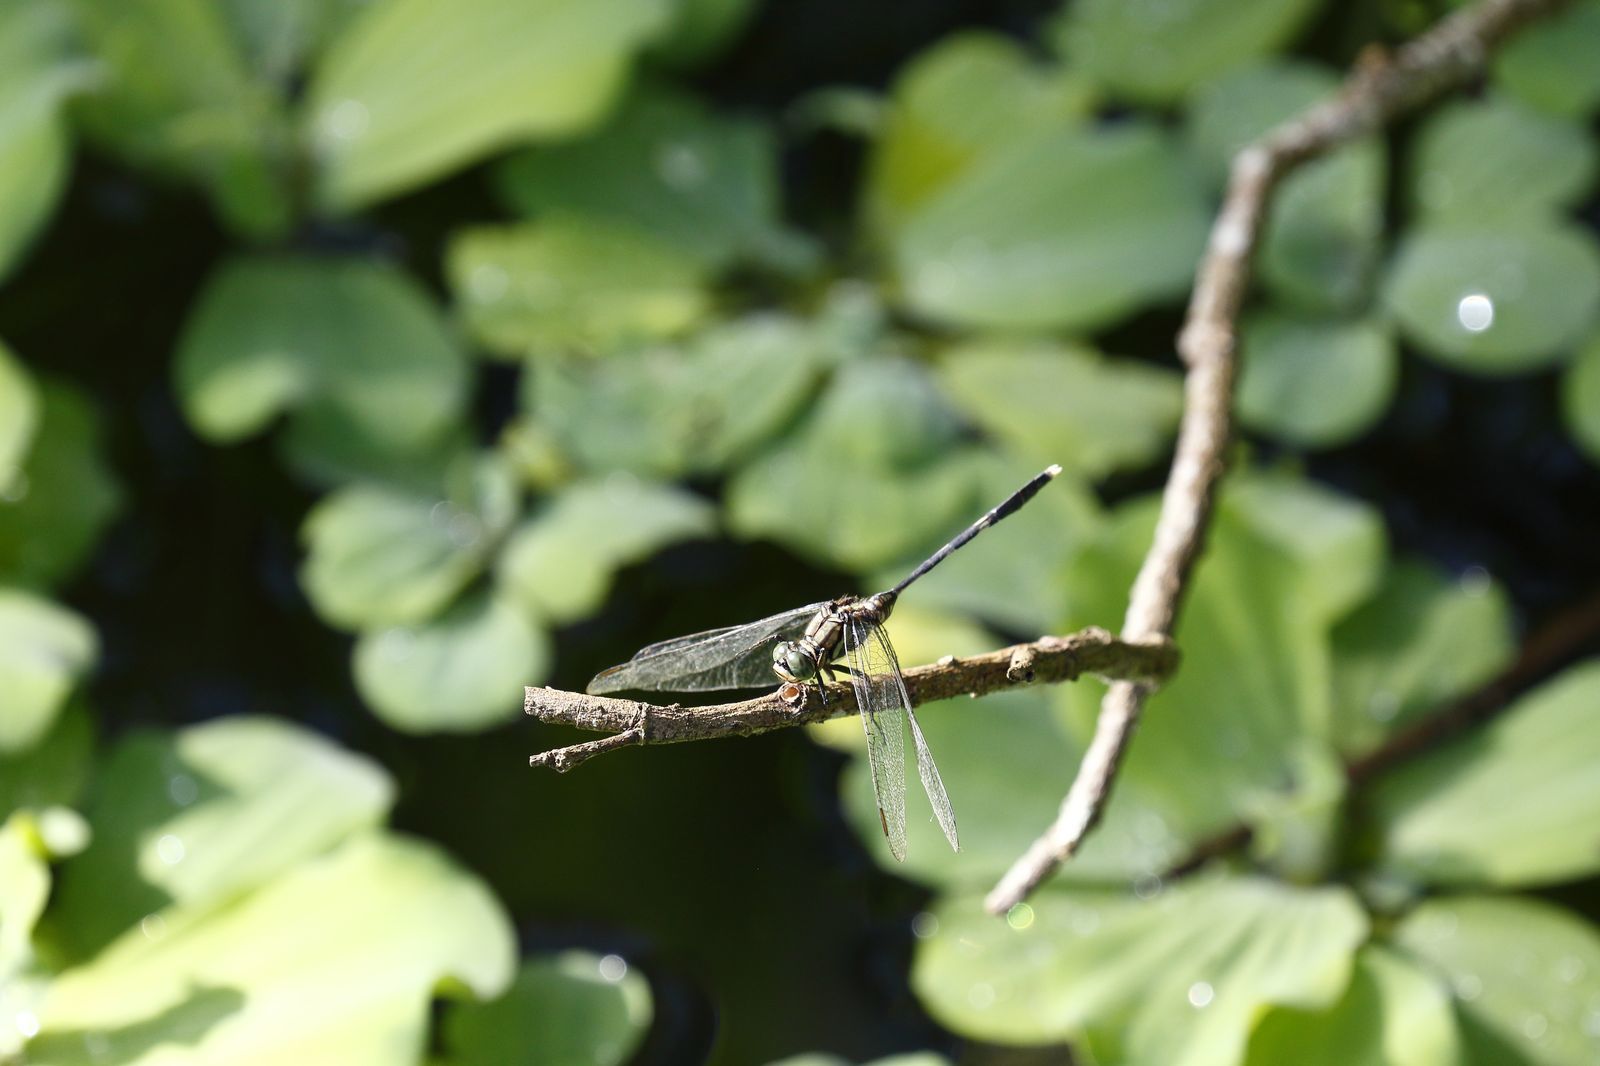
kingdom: Animalia
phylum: Arthropoda
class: Insecta
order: Odonata
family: Libellulidae
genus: Orthetrum
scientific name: Orthetrum sabina
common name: Slender skimmer
